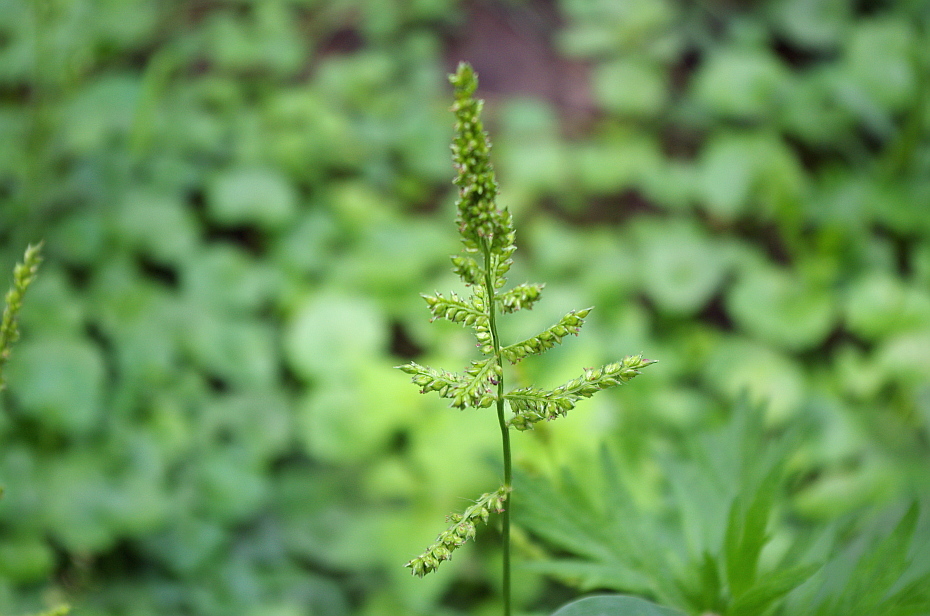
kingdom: Plantae
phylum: Tracheophyta
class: Liliopsida
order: Poales
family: Poaceae
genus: Echinochloa
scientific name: Echinochloa crus-galli
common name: Cockspur
